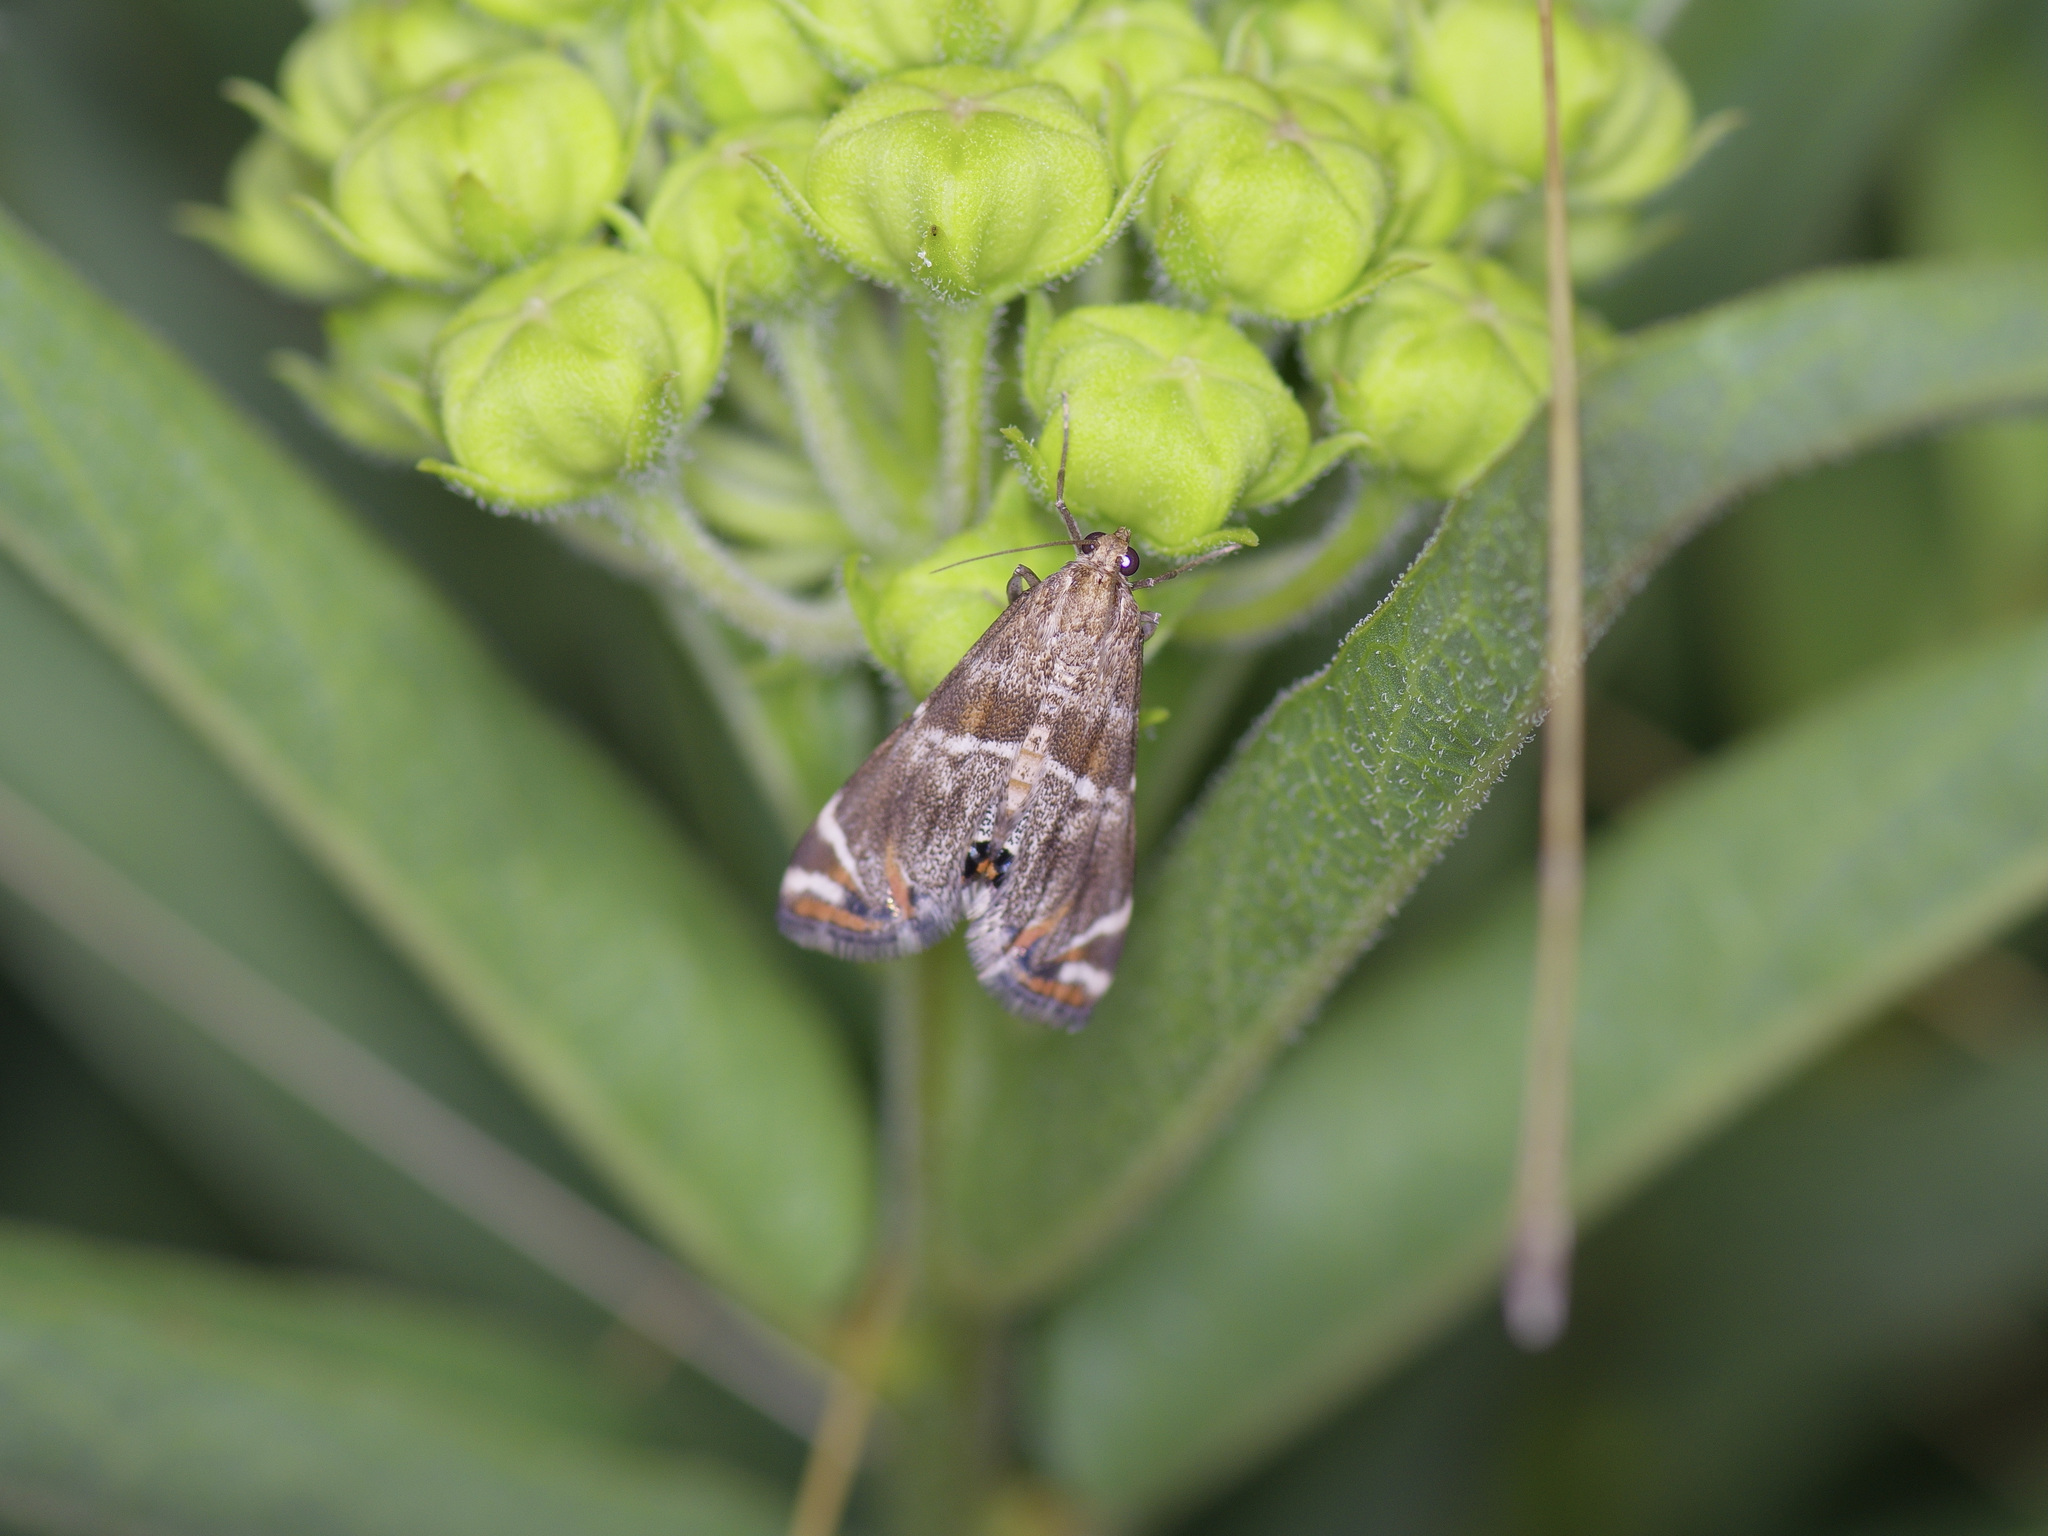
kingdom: Animalia
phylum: Arthropoda
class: Insecta
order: Lepidoptera
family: Crambidae
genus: Petrophila
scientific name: Petrophila jaliscalis
